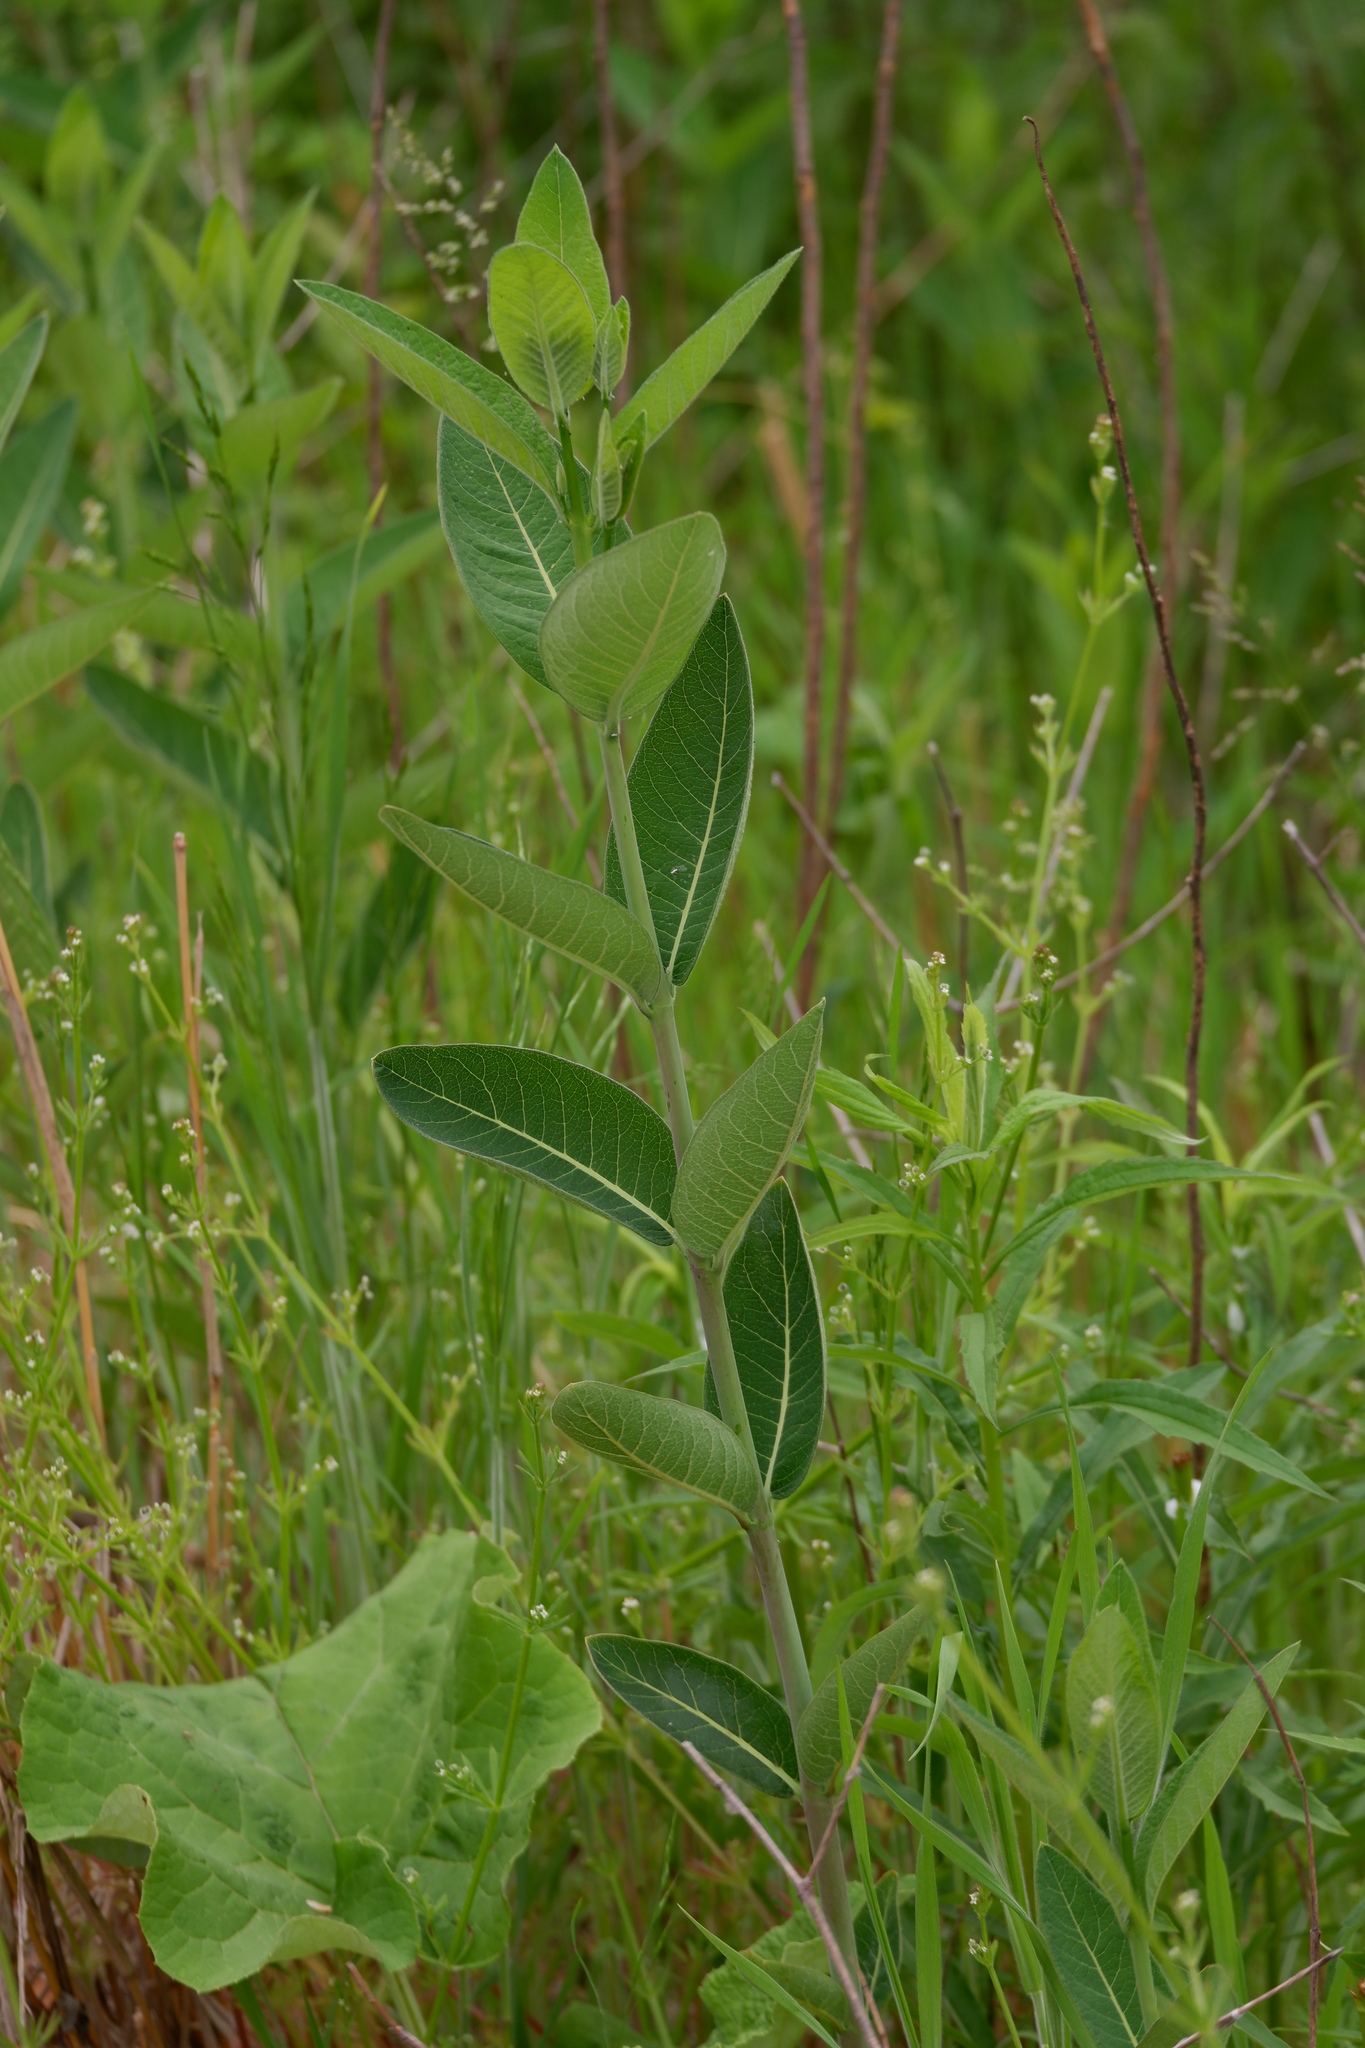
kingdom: Plantae
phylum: Tracheophyta
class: Magnoliopsida
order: Gentianales
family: Apocynaceae
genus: Apocynum
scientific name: Apocynum cannabinum
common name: Hemp dogbane
